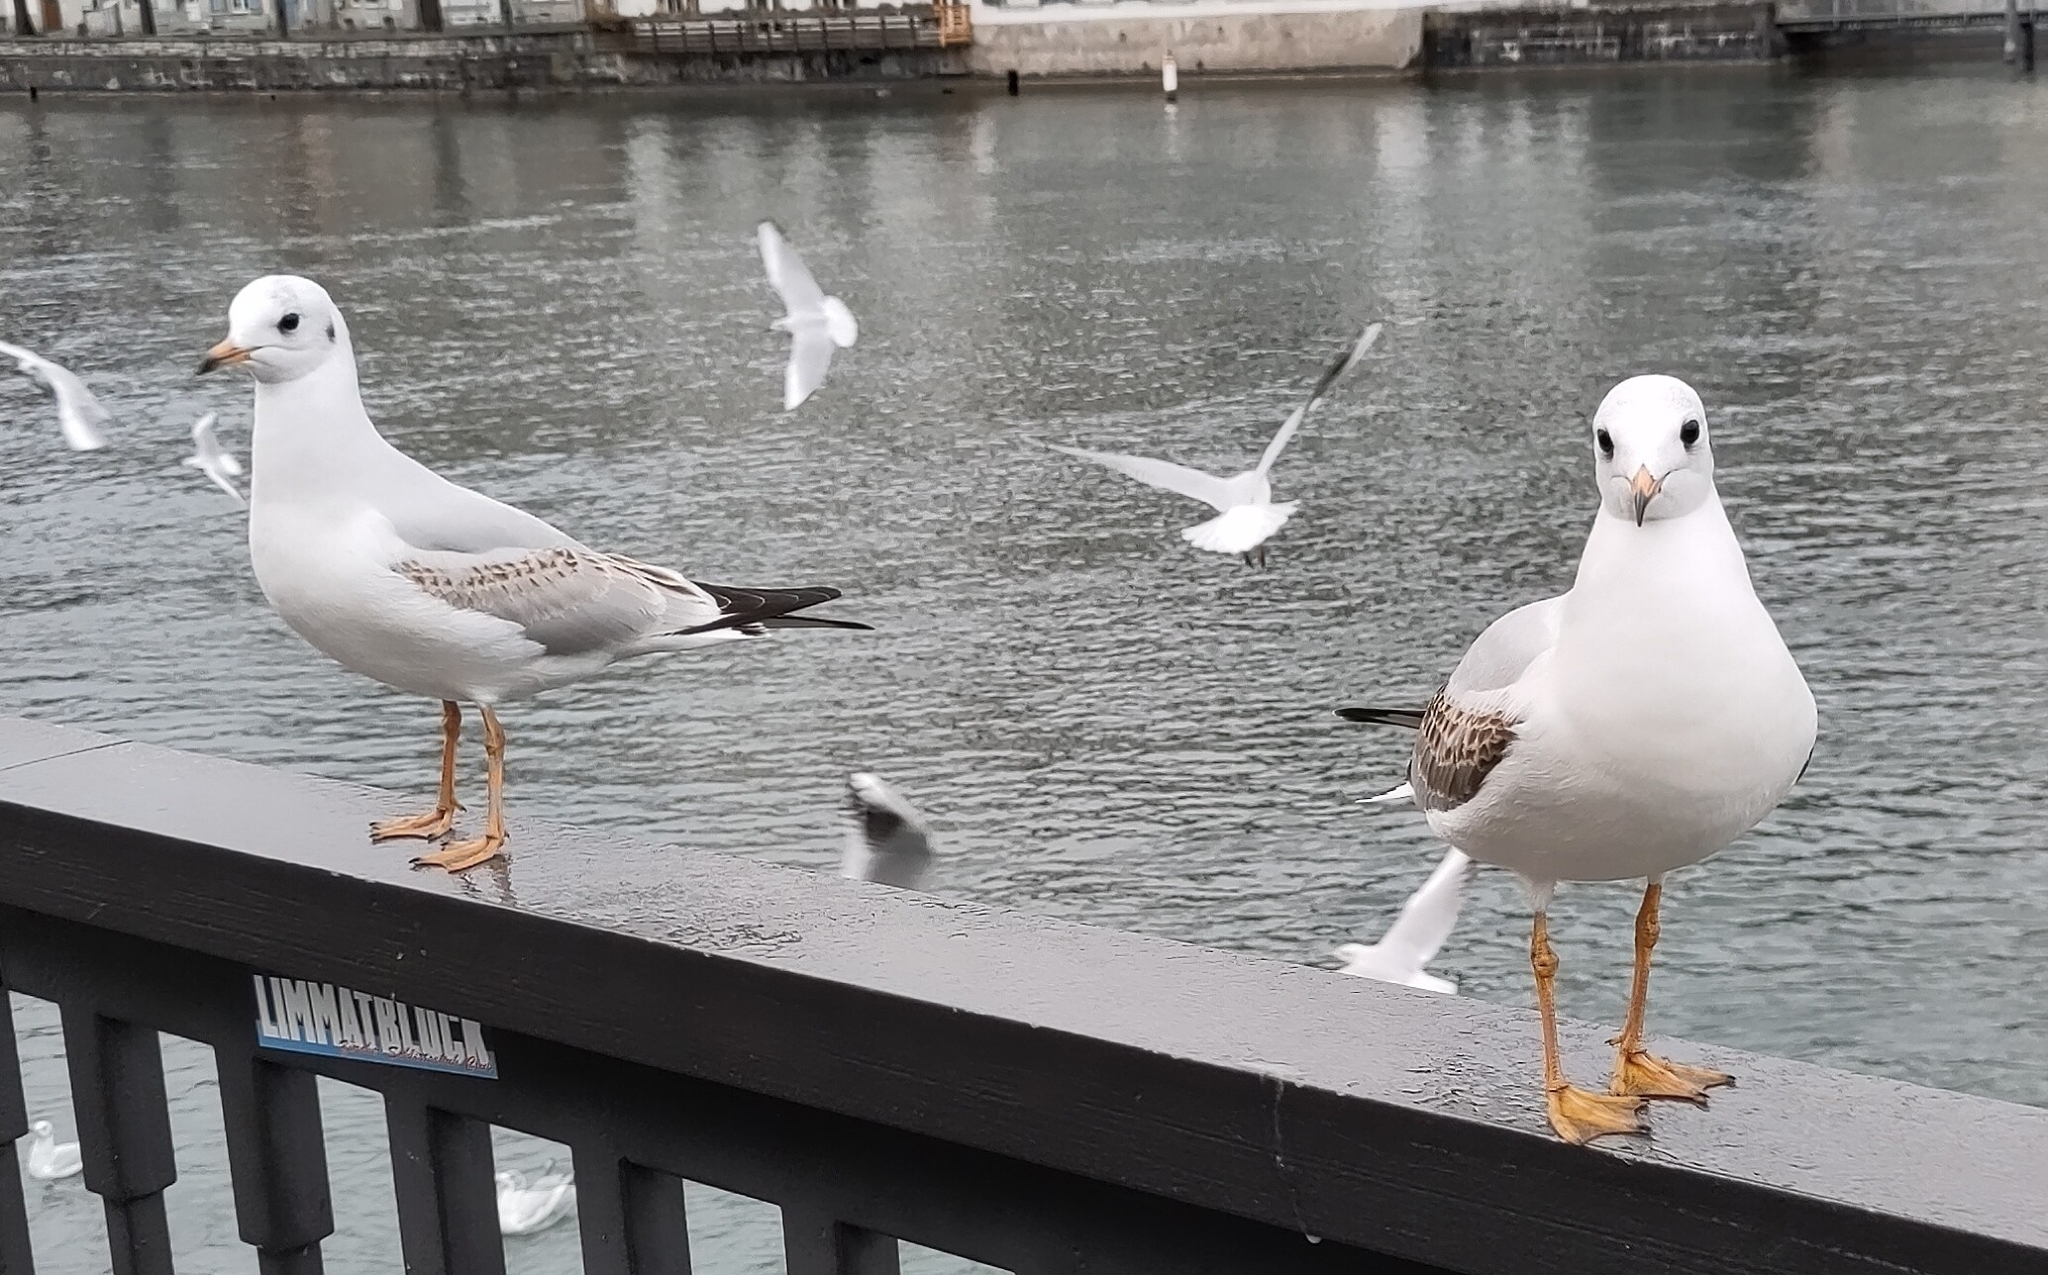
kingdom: Animalia
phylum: Chordata
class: Aves
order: Charadriiformes
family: Laridae
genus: Chroicocephalus
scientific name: Chroicocephalus ridibundus
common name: Black-headed gull
